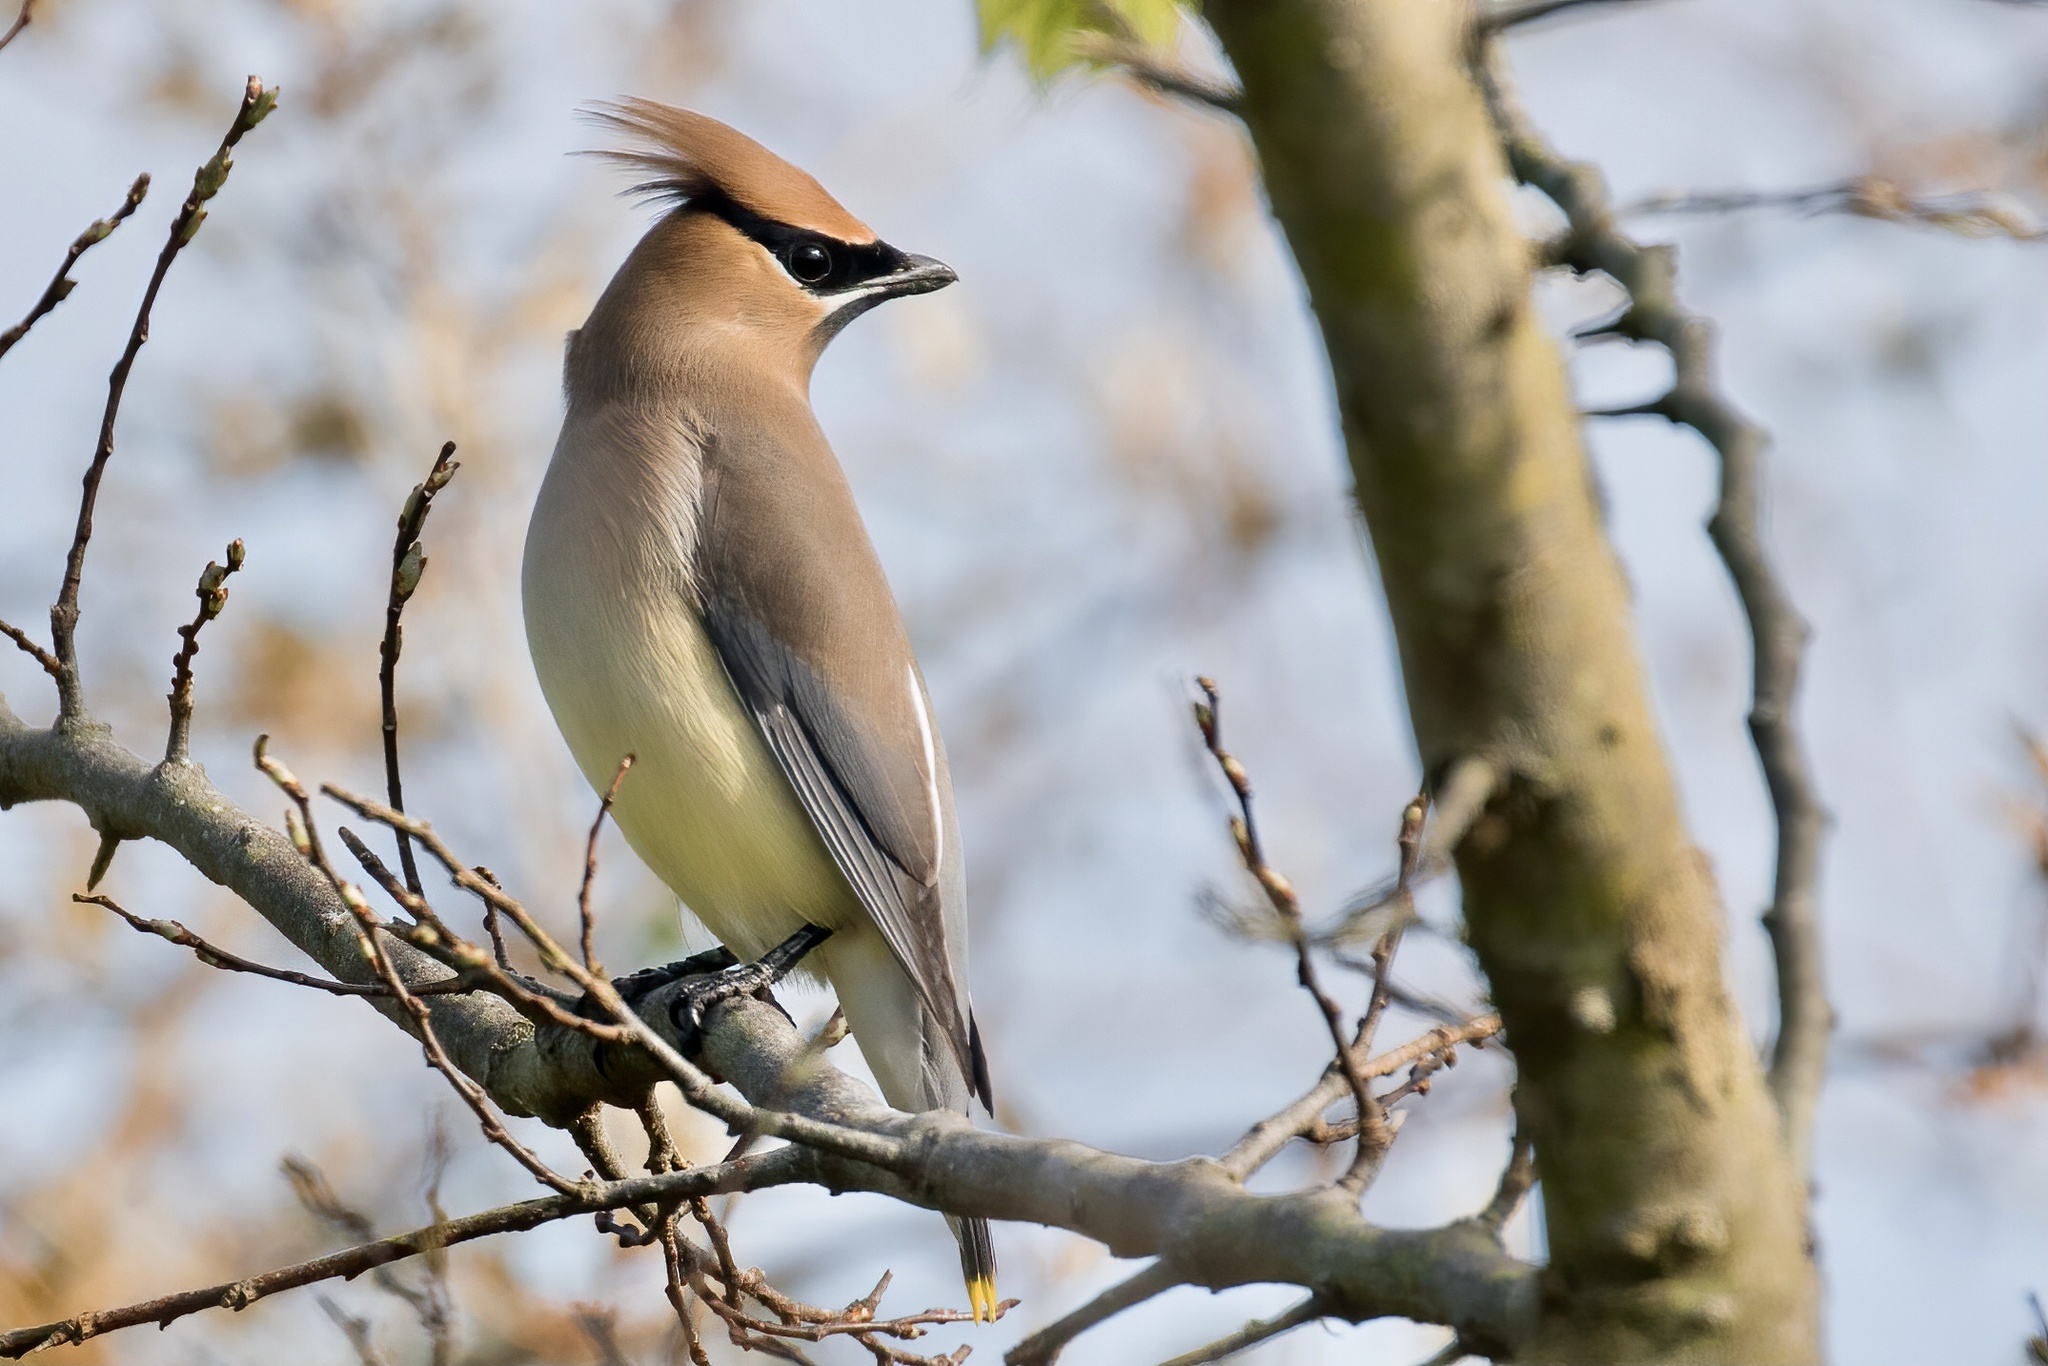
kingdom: Animalia
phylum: Chordata
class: Aves
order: Passeriformes
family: Bombycillidae
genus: Bombycilla
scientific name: Bombycilla cedrorum
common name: Cedar waxwing
